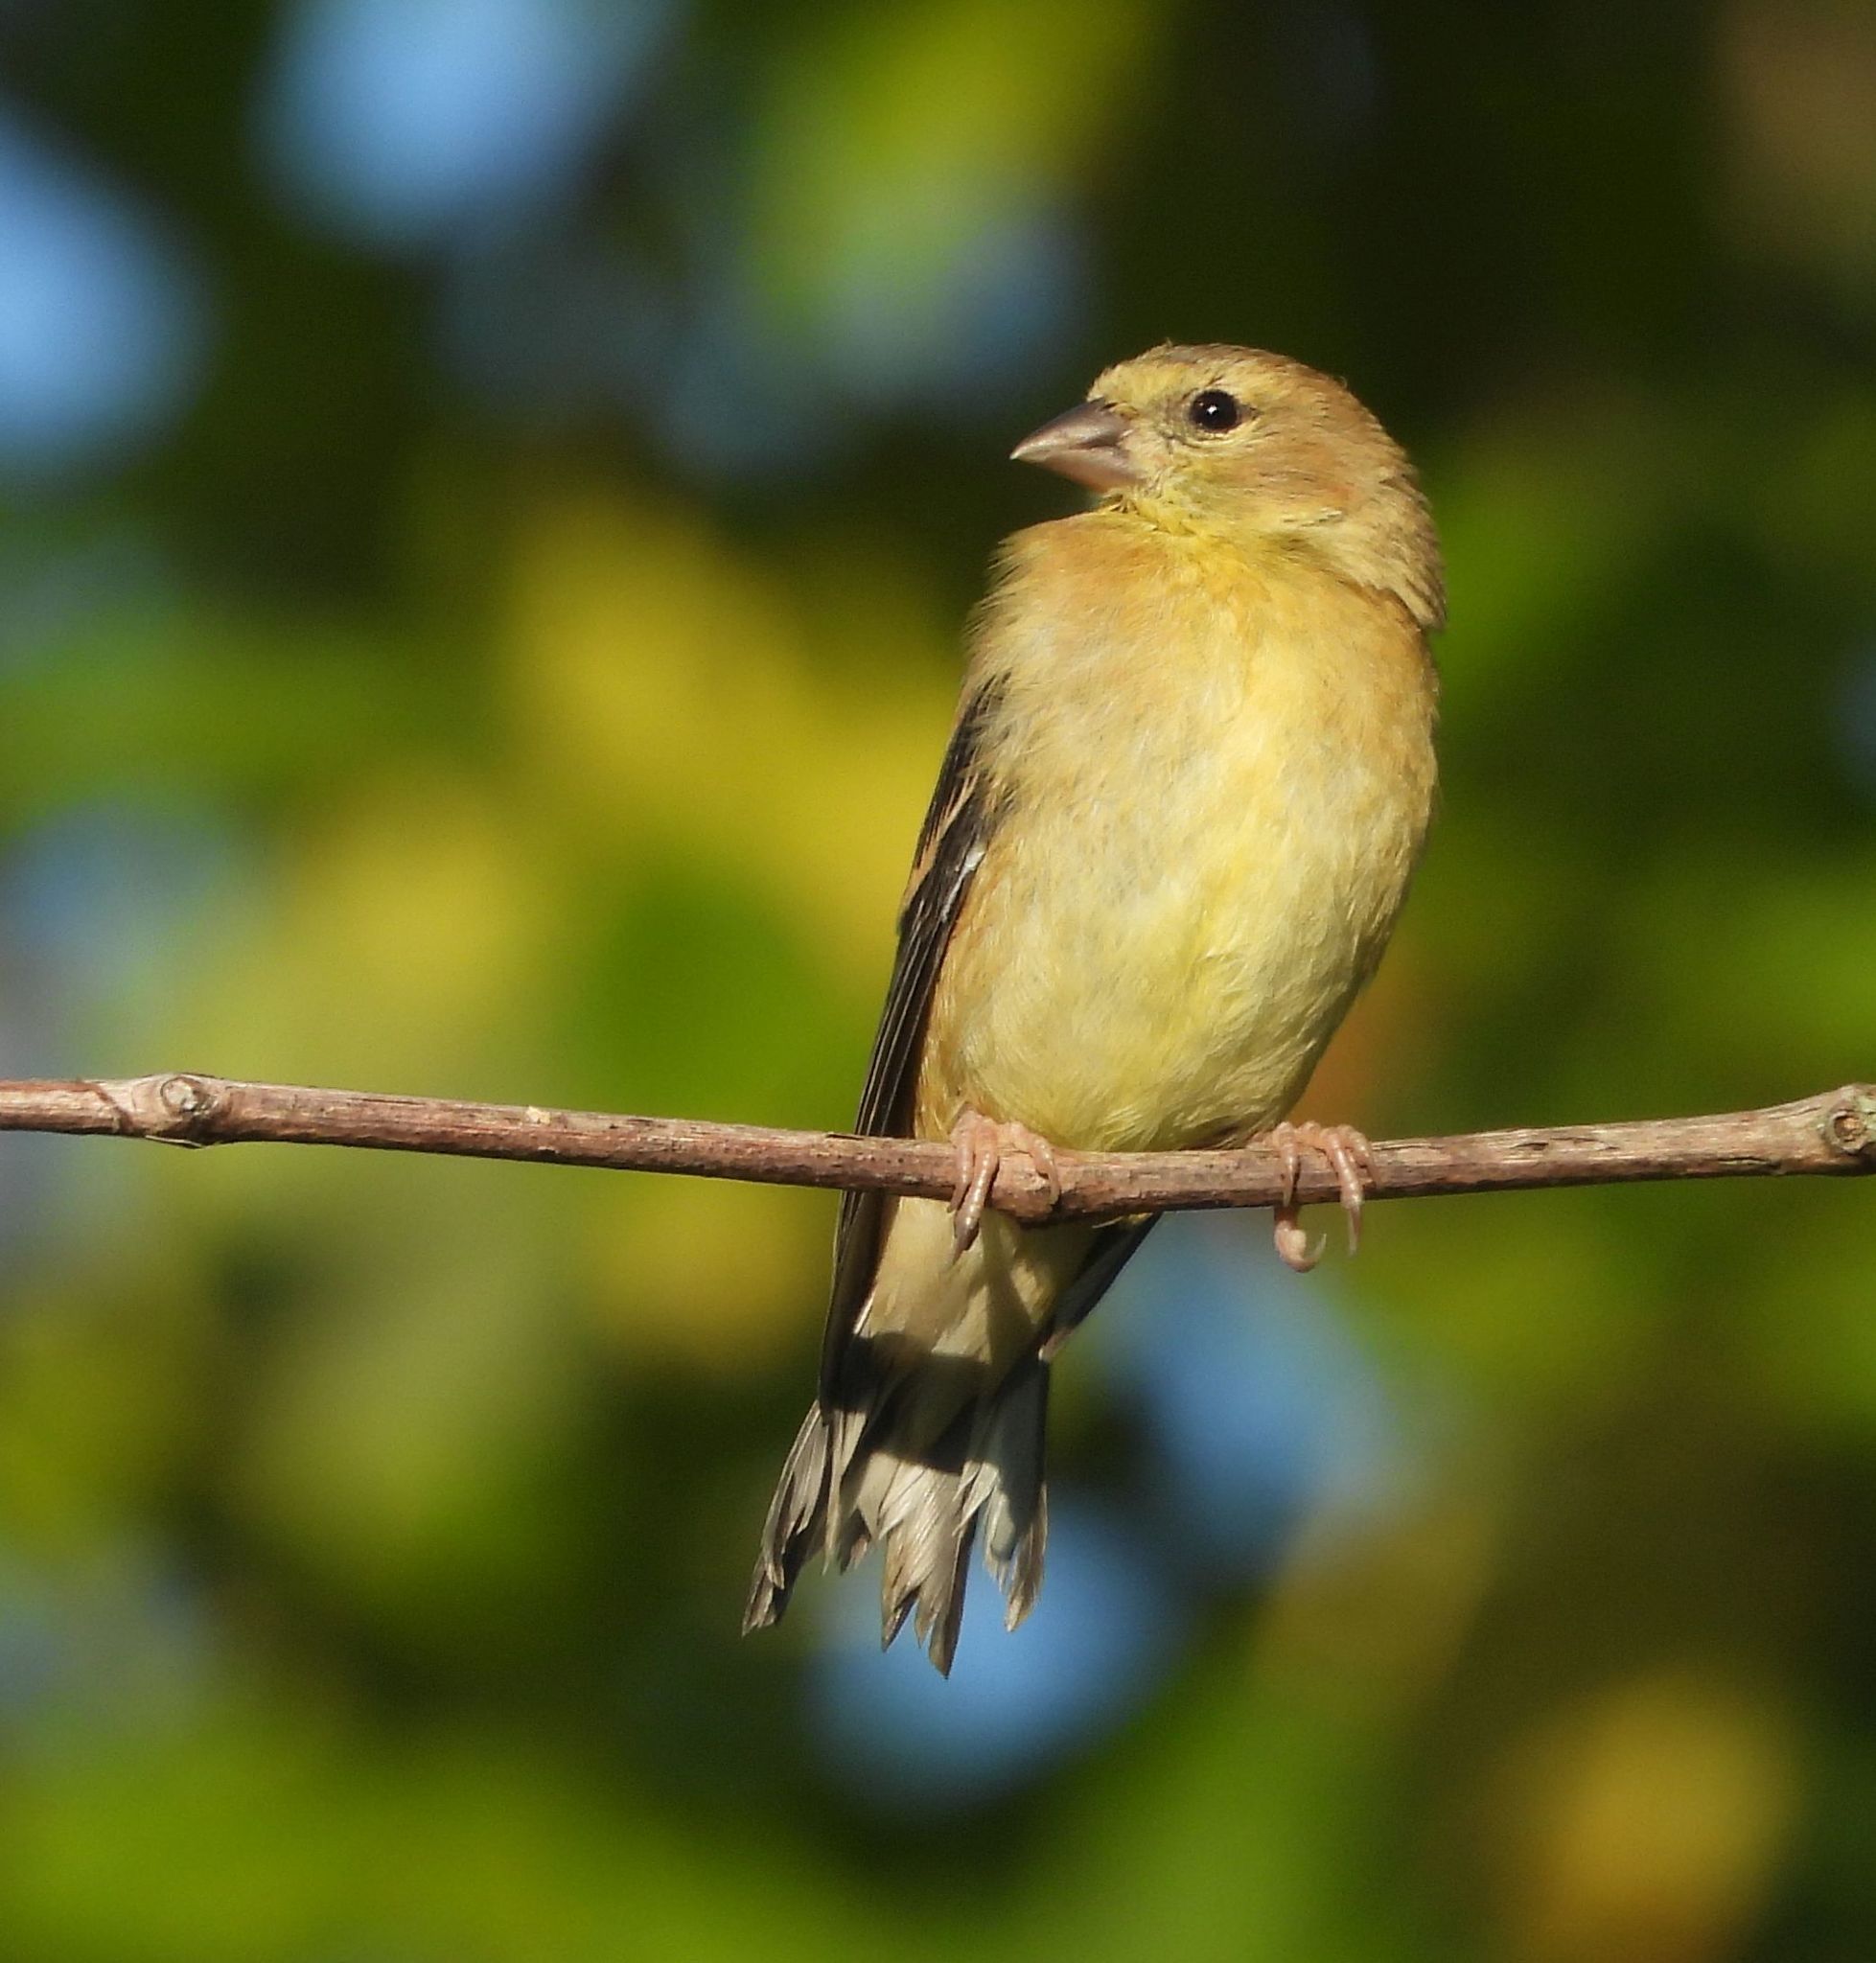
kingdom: Animalia
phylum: Chordata
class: Aves
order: Passeriformes
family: Fringillidae
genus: Spinus
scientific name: Spinus tristis
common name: American goldfinch
